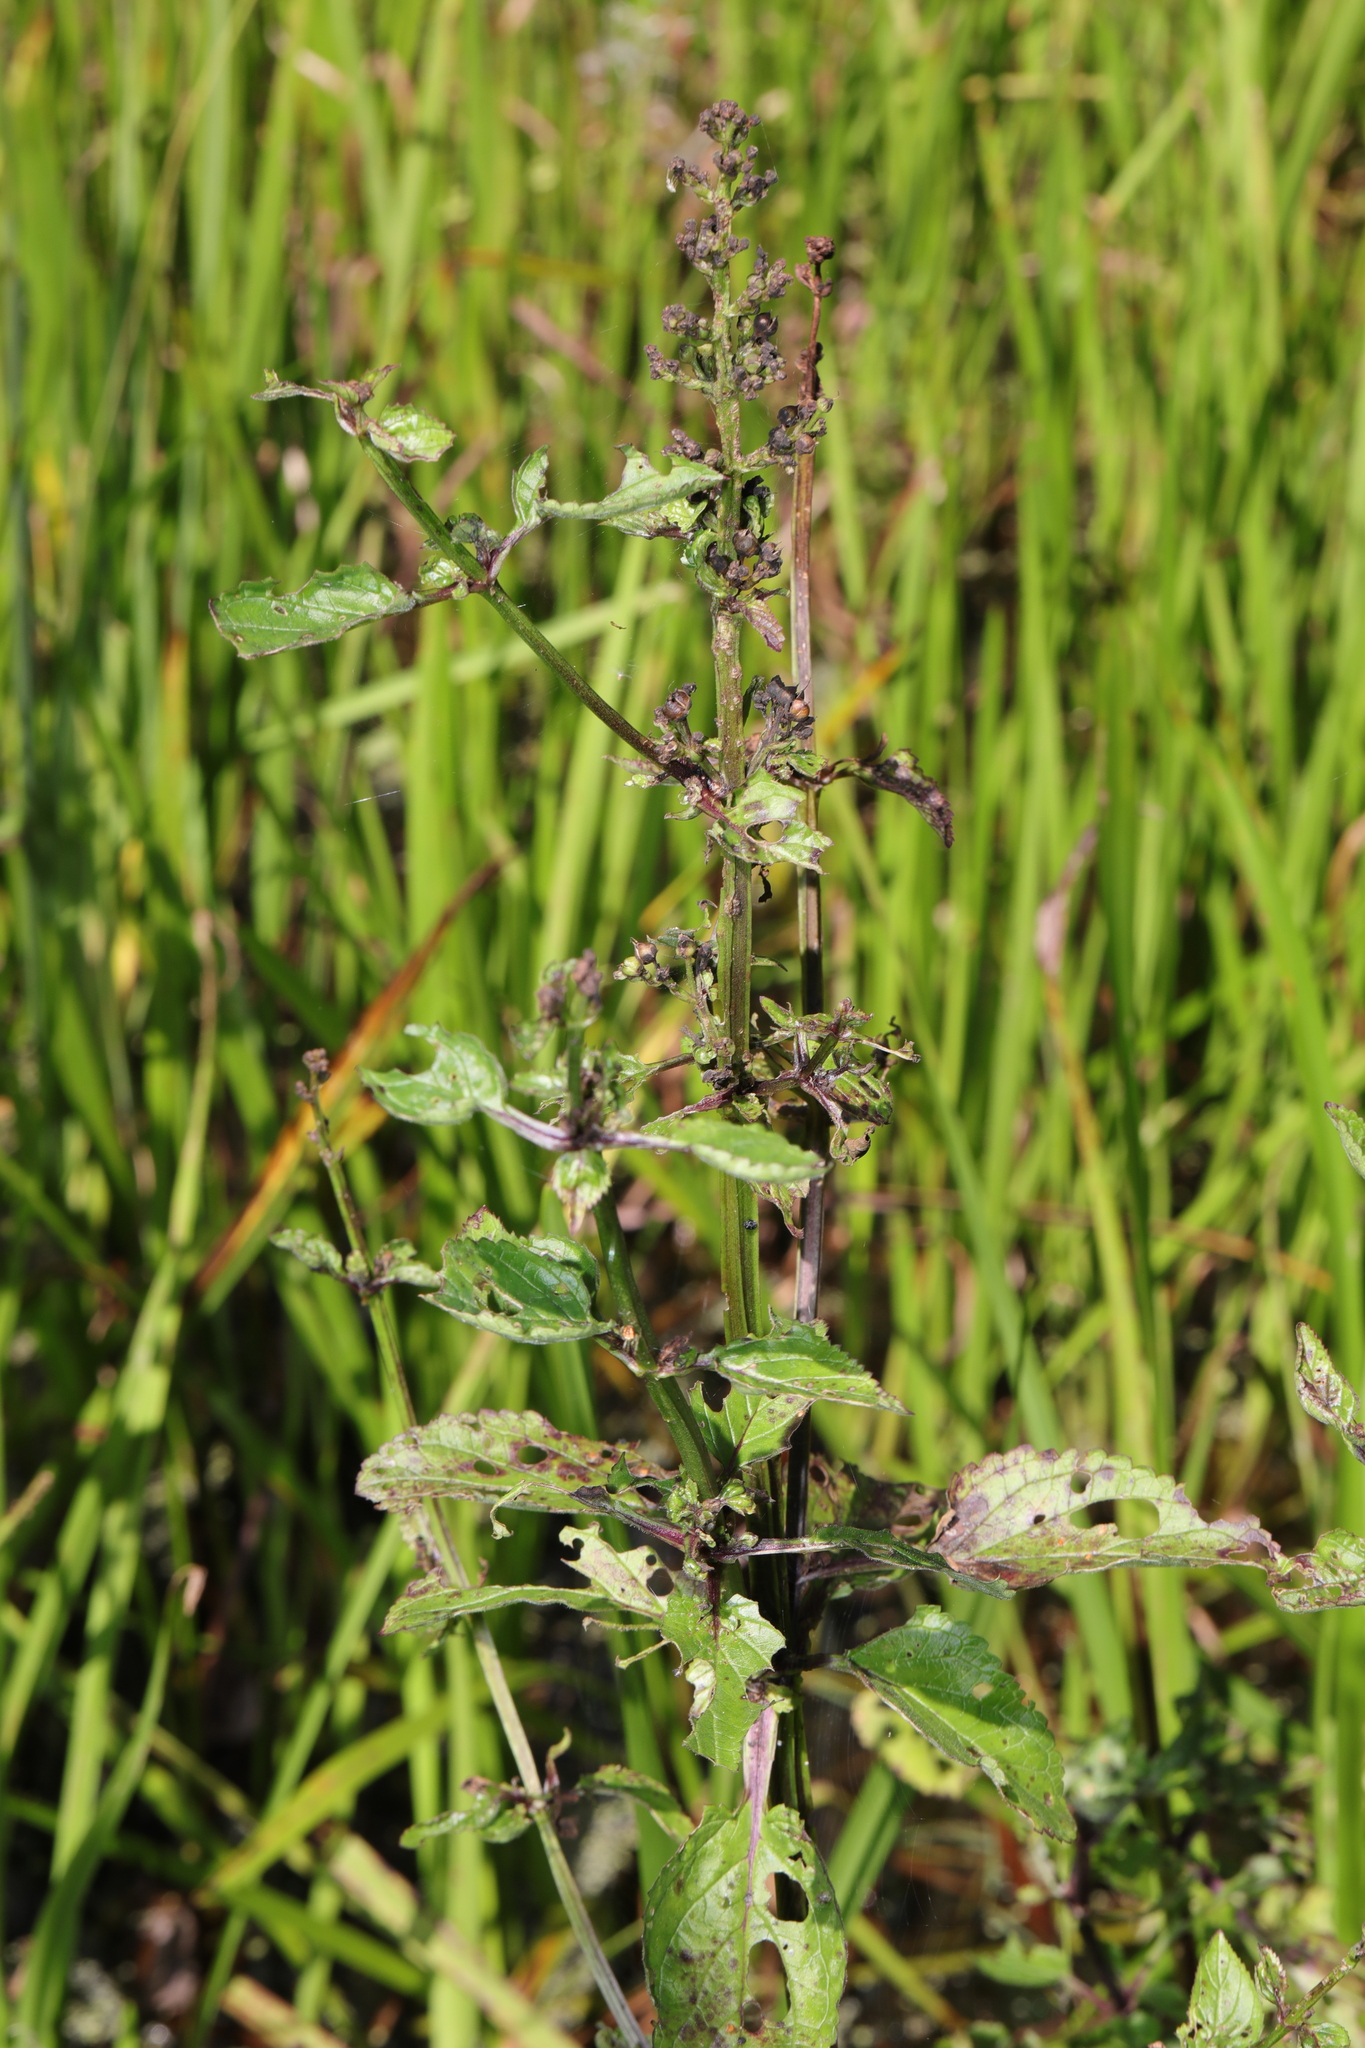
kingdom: Plantae
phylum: Tracheophyta
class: Magnoliopsida
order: Lamiales
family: Scrophulariaceae
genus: Scrophularia
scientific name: Scrophularia auriculata
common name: Water betony
